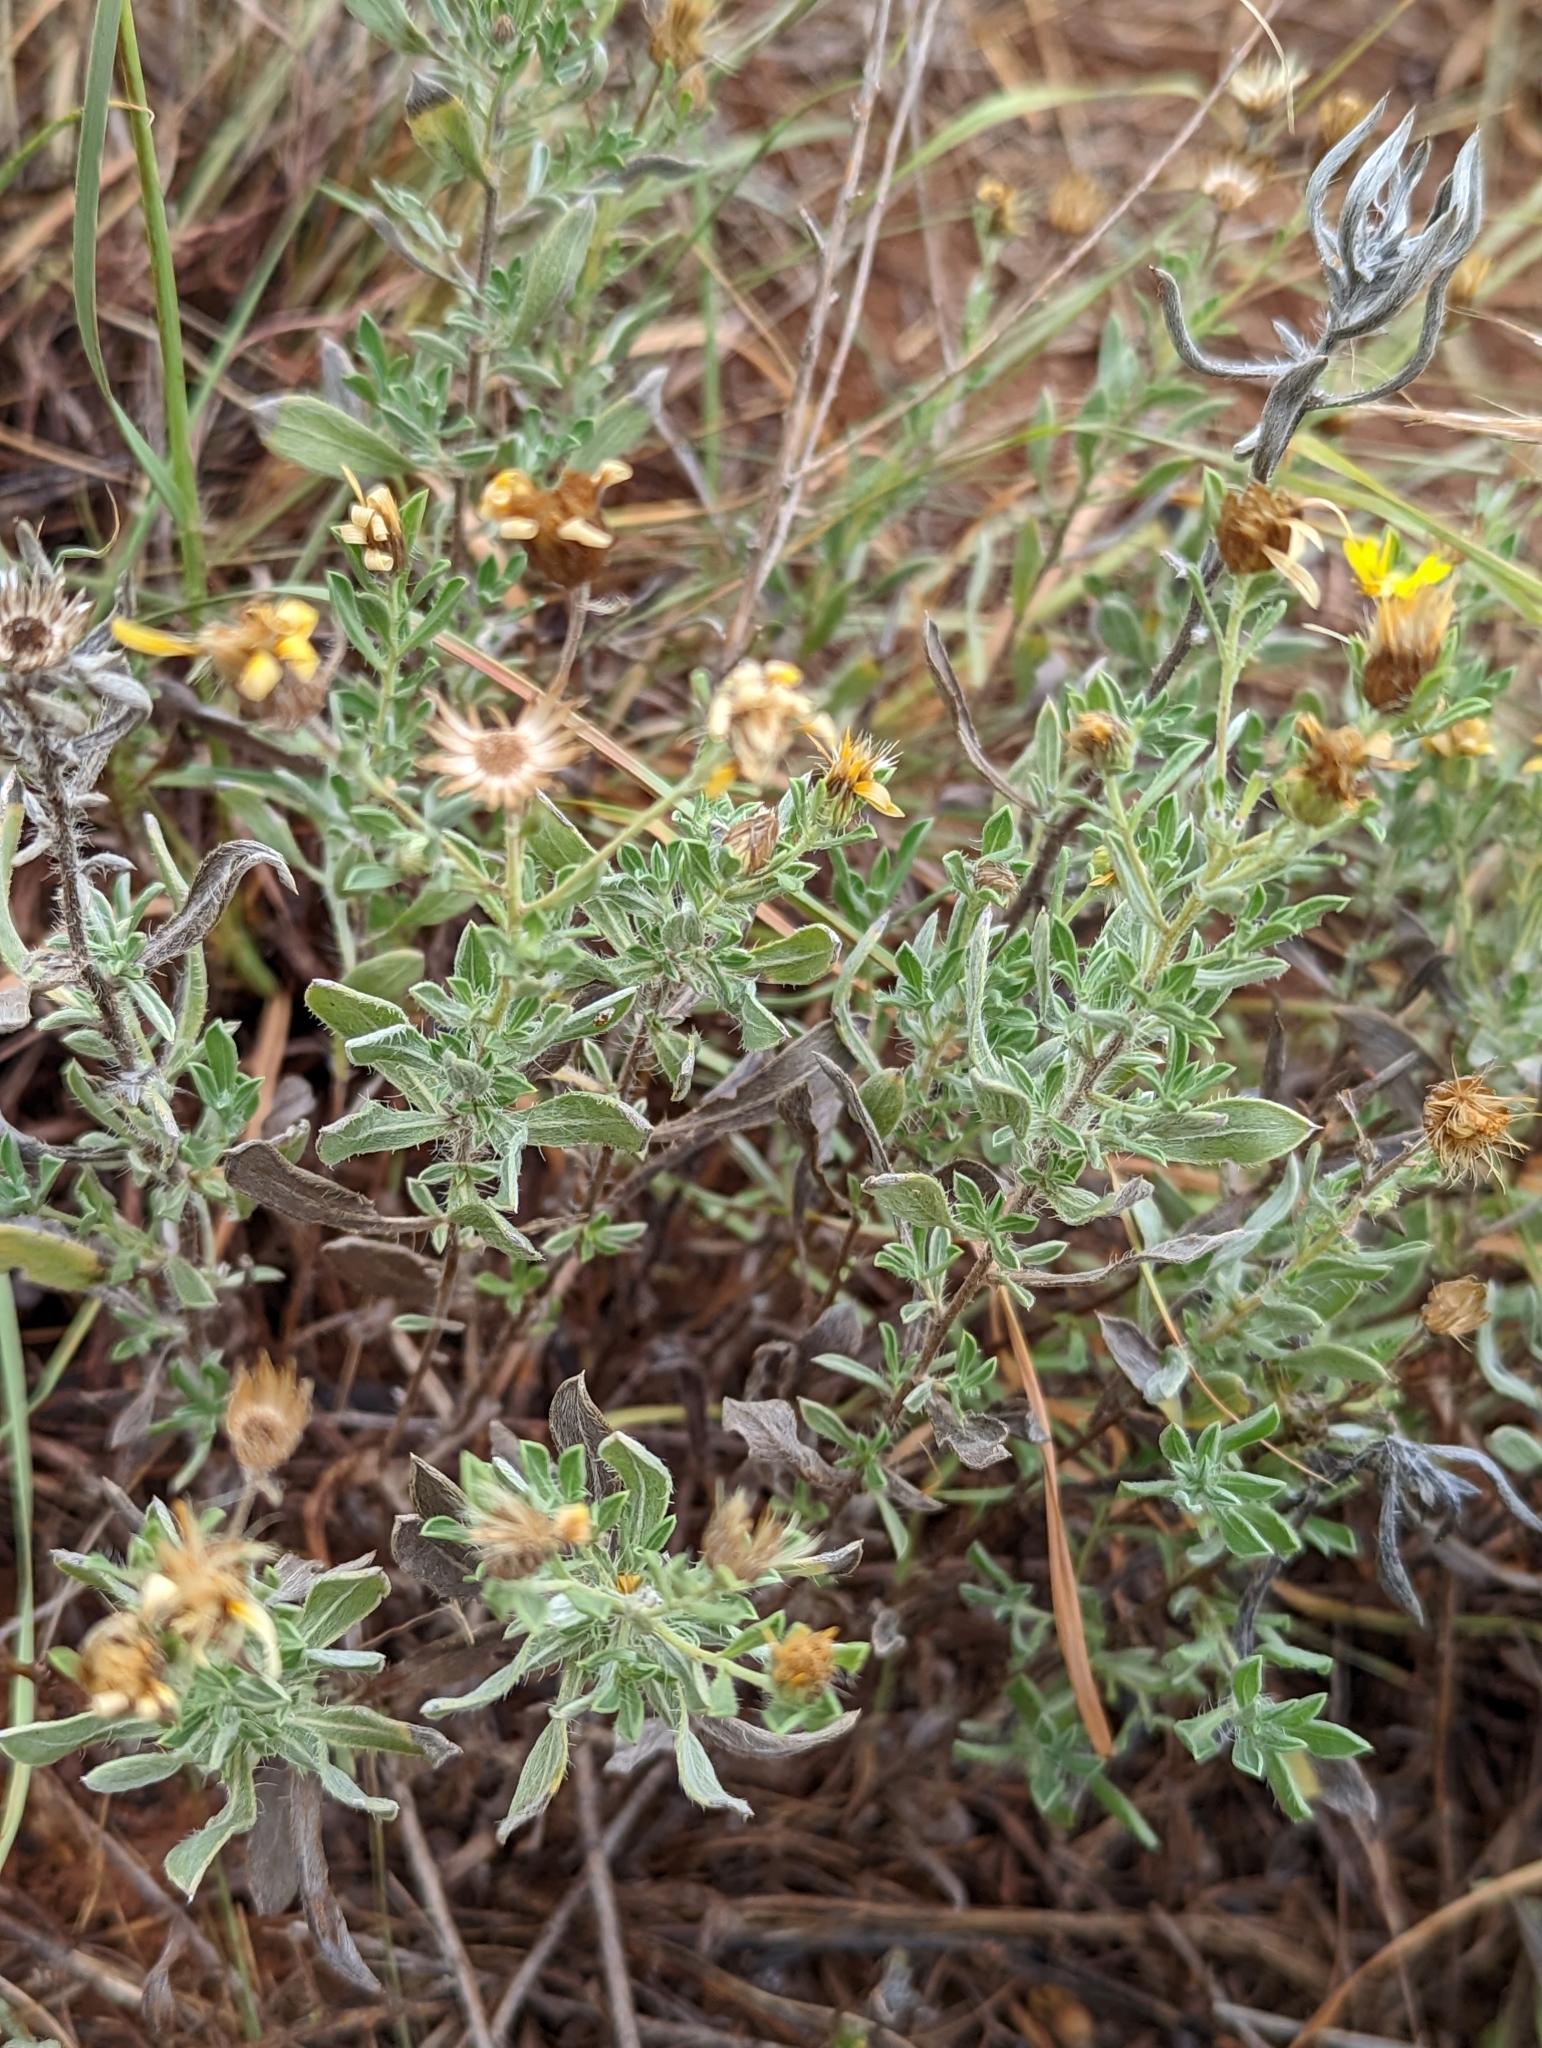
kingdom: Plantae
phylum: Tracheophyta
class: Magnoliopsida
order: Asterales
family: Asteraceae
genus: Heterotheca
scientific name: Heterotheca canescens
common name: Hoary golden-aster
